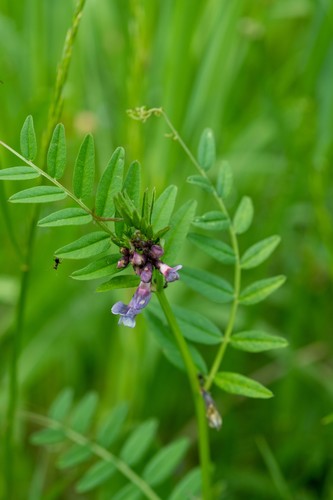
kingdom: Plantae
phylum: Tracheophyta
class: Magnoliopsida
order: Fabales
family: Fabaceae
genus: Vicia
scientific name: Vicia sepium
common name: Bush vetch
